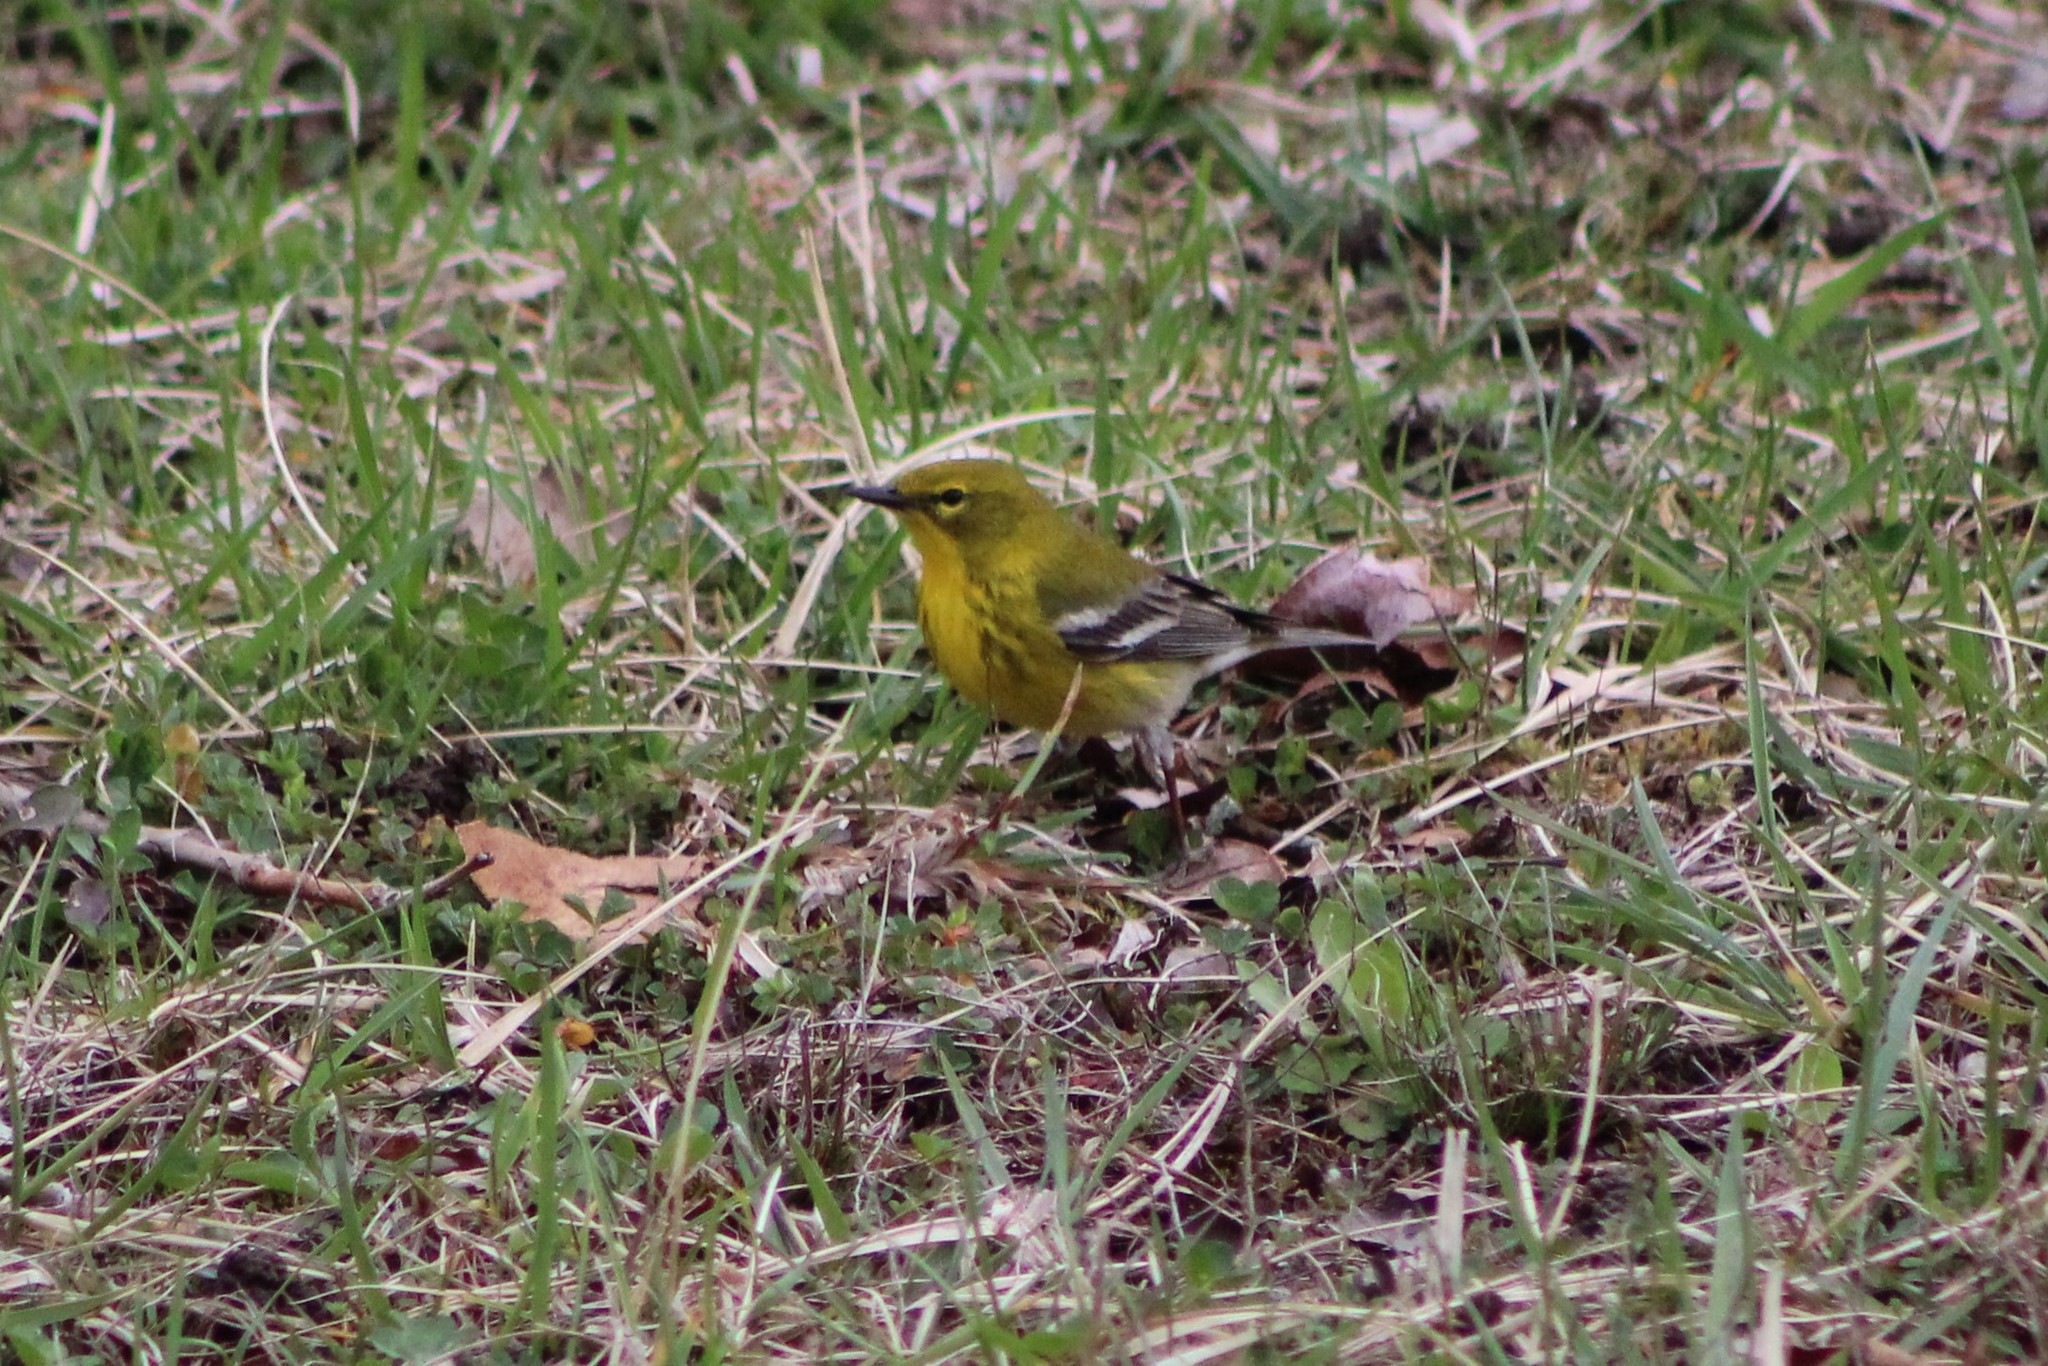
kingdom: Animalia
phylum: Chordata
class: Aves
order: Passeriformes
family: Parulidae
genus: Setophaga
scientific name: Setophaga pinus
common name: Pine warbler
